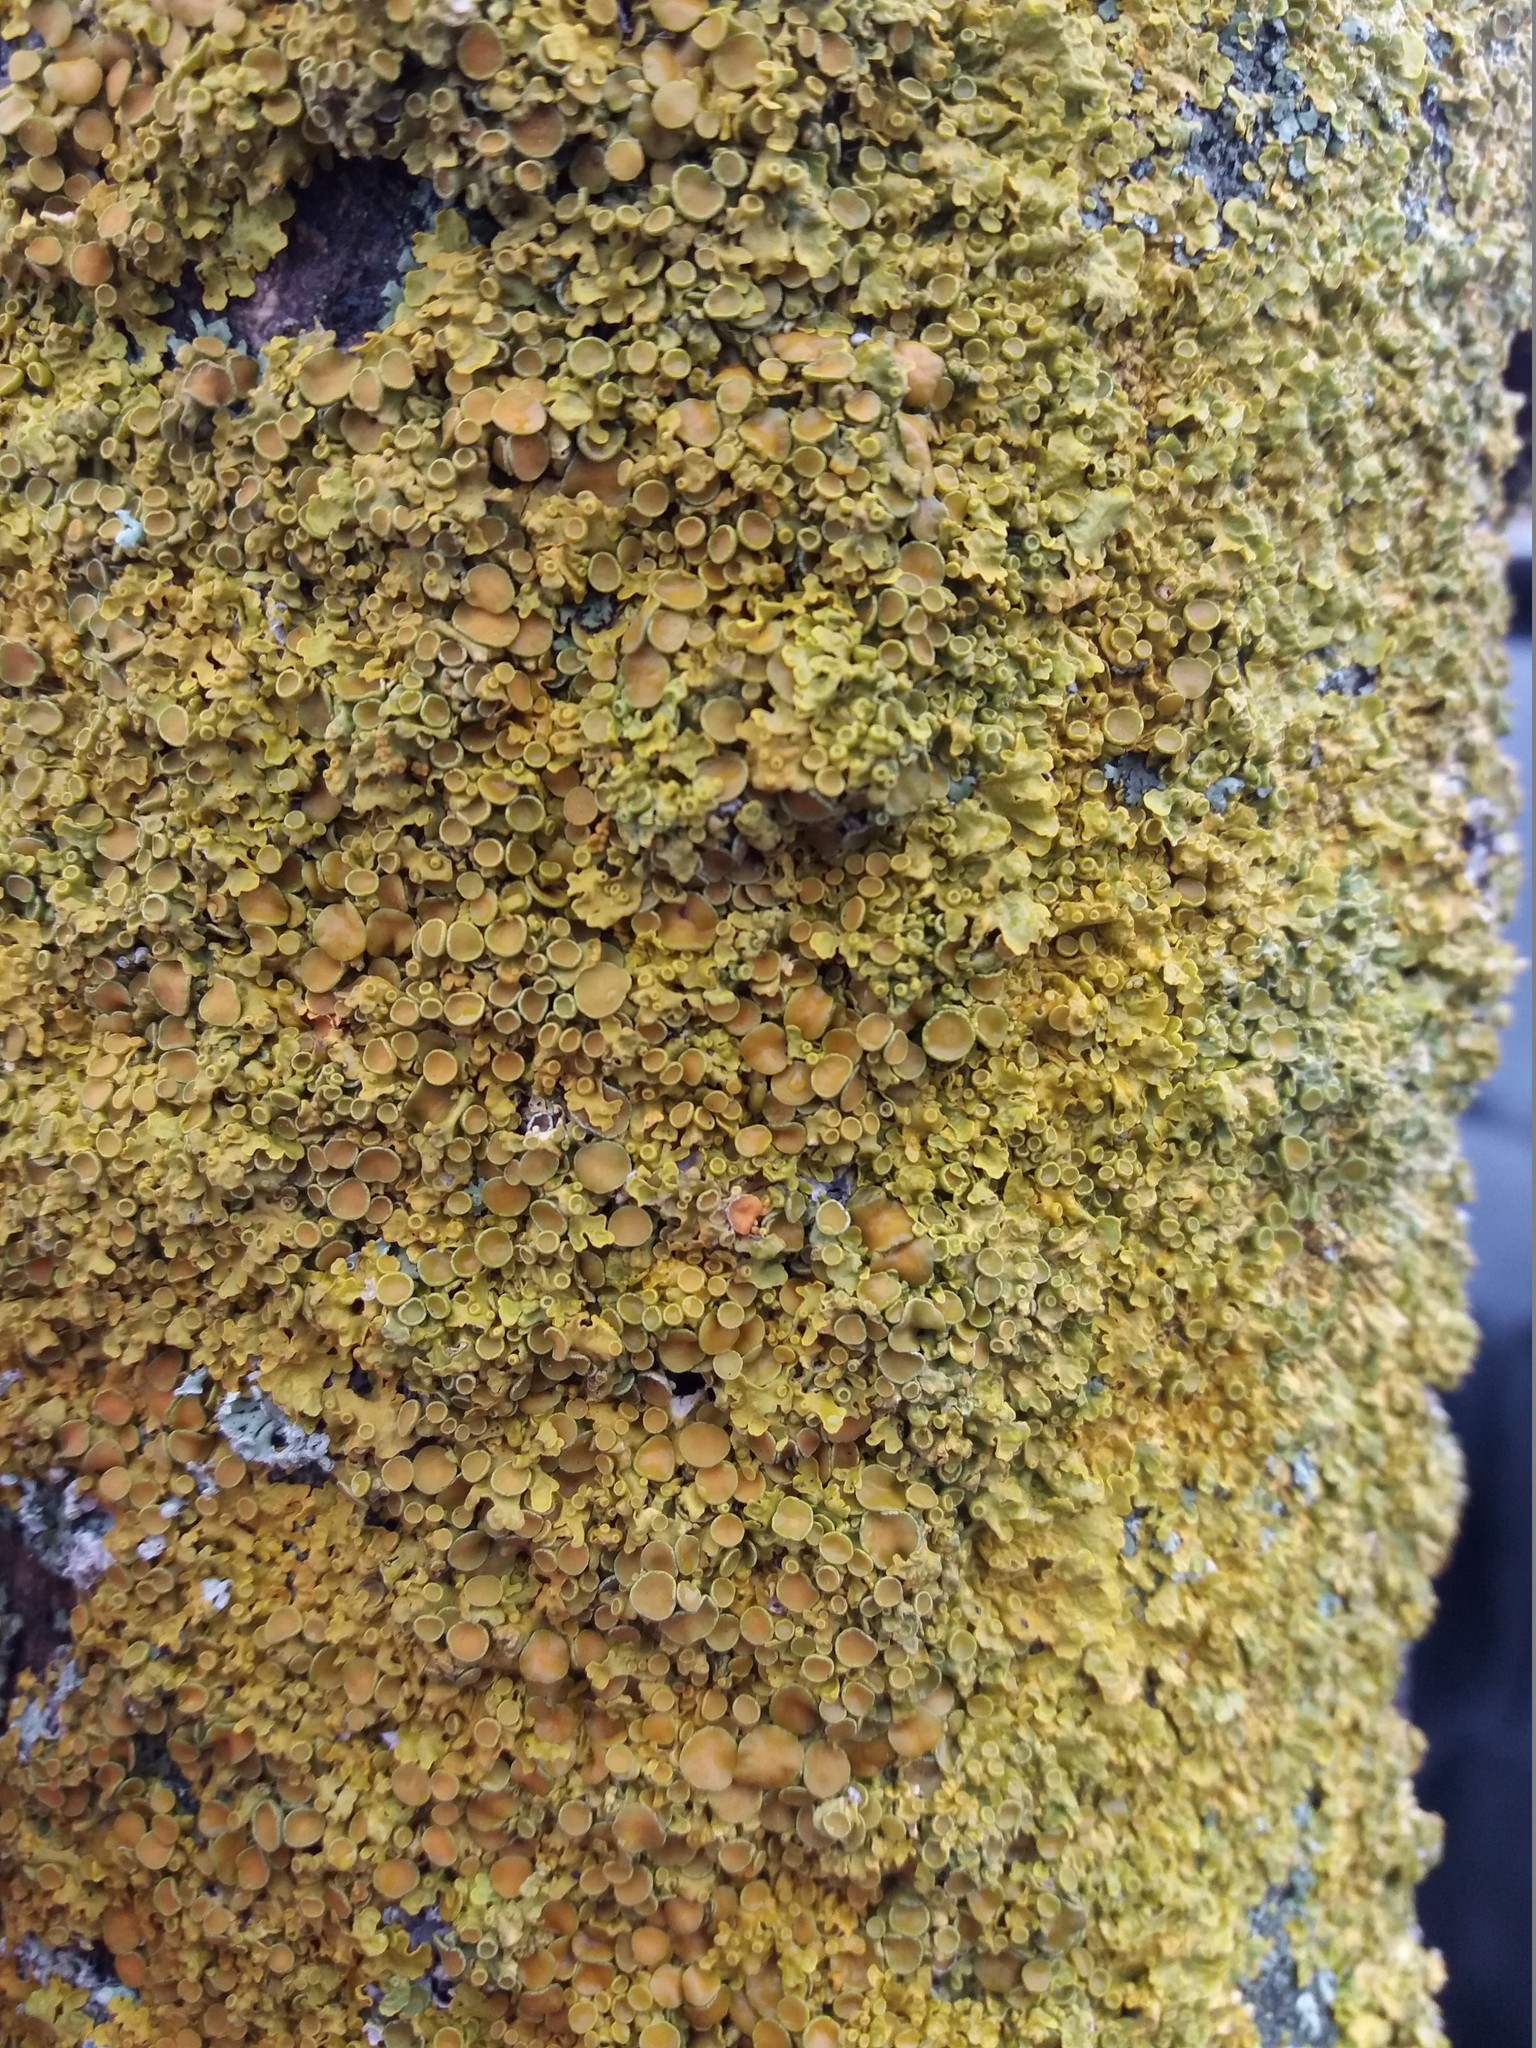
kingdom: Fungi
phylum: Ascomycota
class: Lecanoromycetes
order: Teloschistales
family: Teloschistaceae
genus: Xanthoria
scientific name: Xanthoria parietina
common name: Common orange lichen
